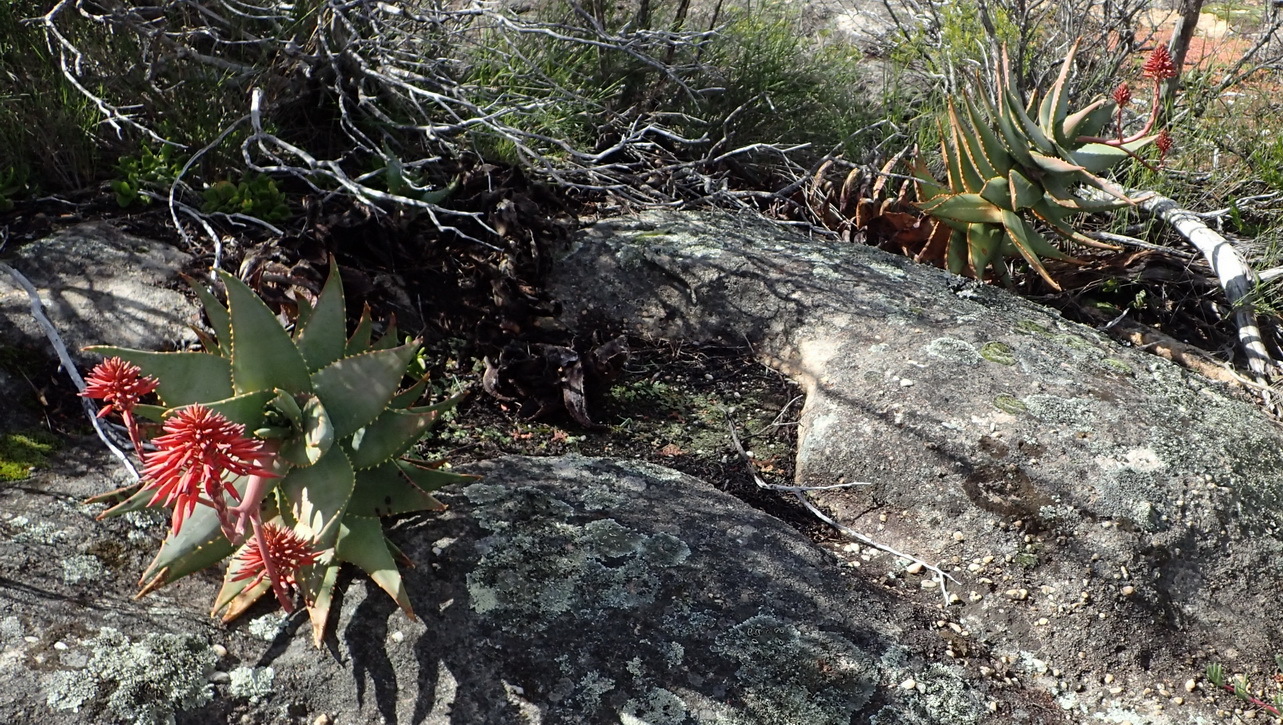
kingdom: Plantae
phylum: Tracheophyta
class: Liliopsida
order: Asparagales
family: Asphodelaceae
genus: Aloe
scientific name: Aloe perfoliata
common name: Mitra aloe
